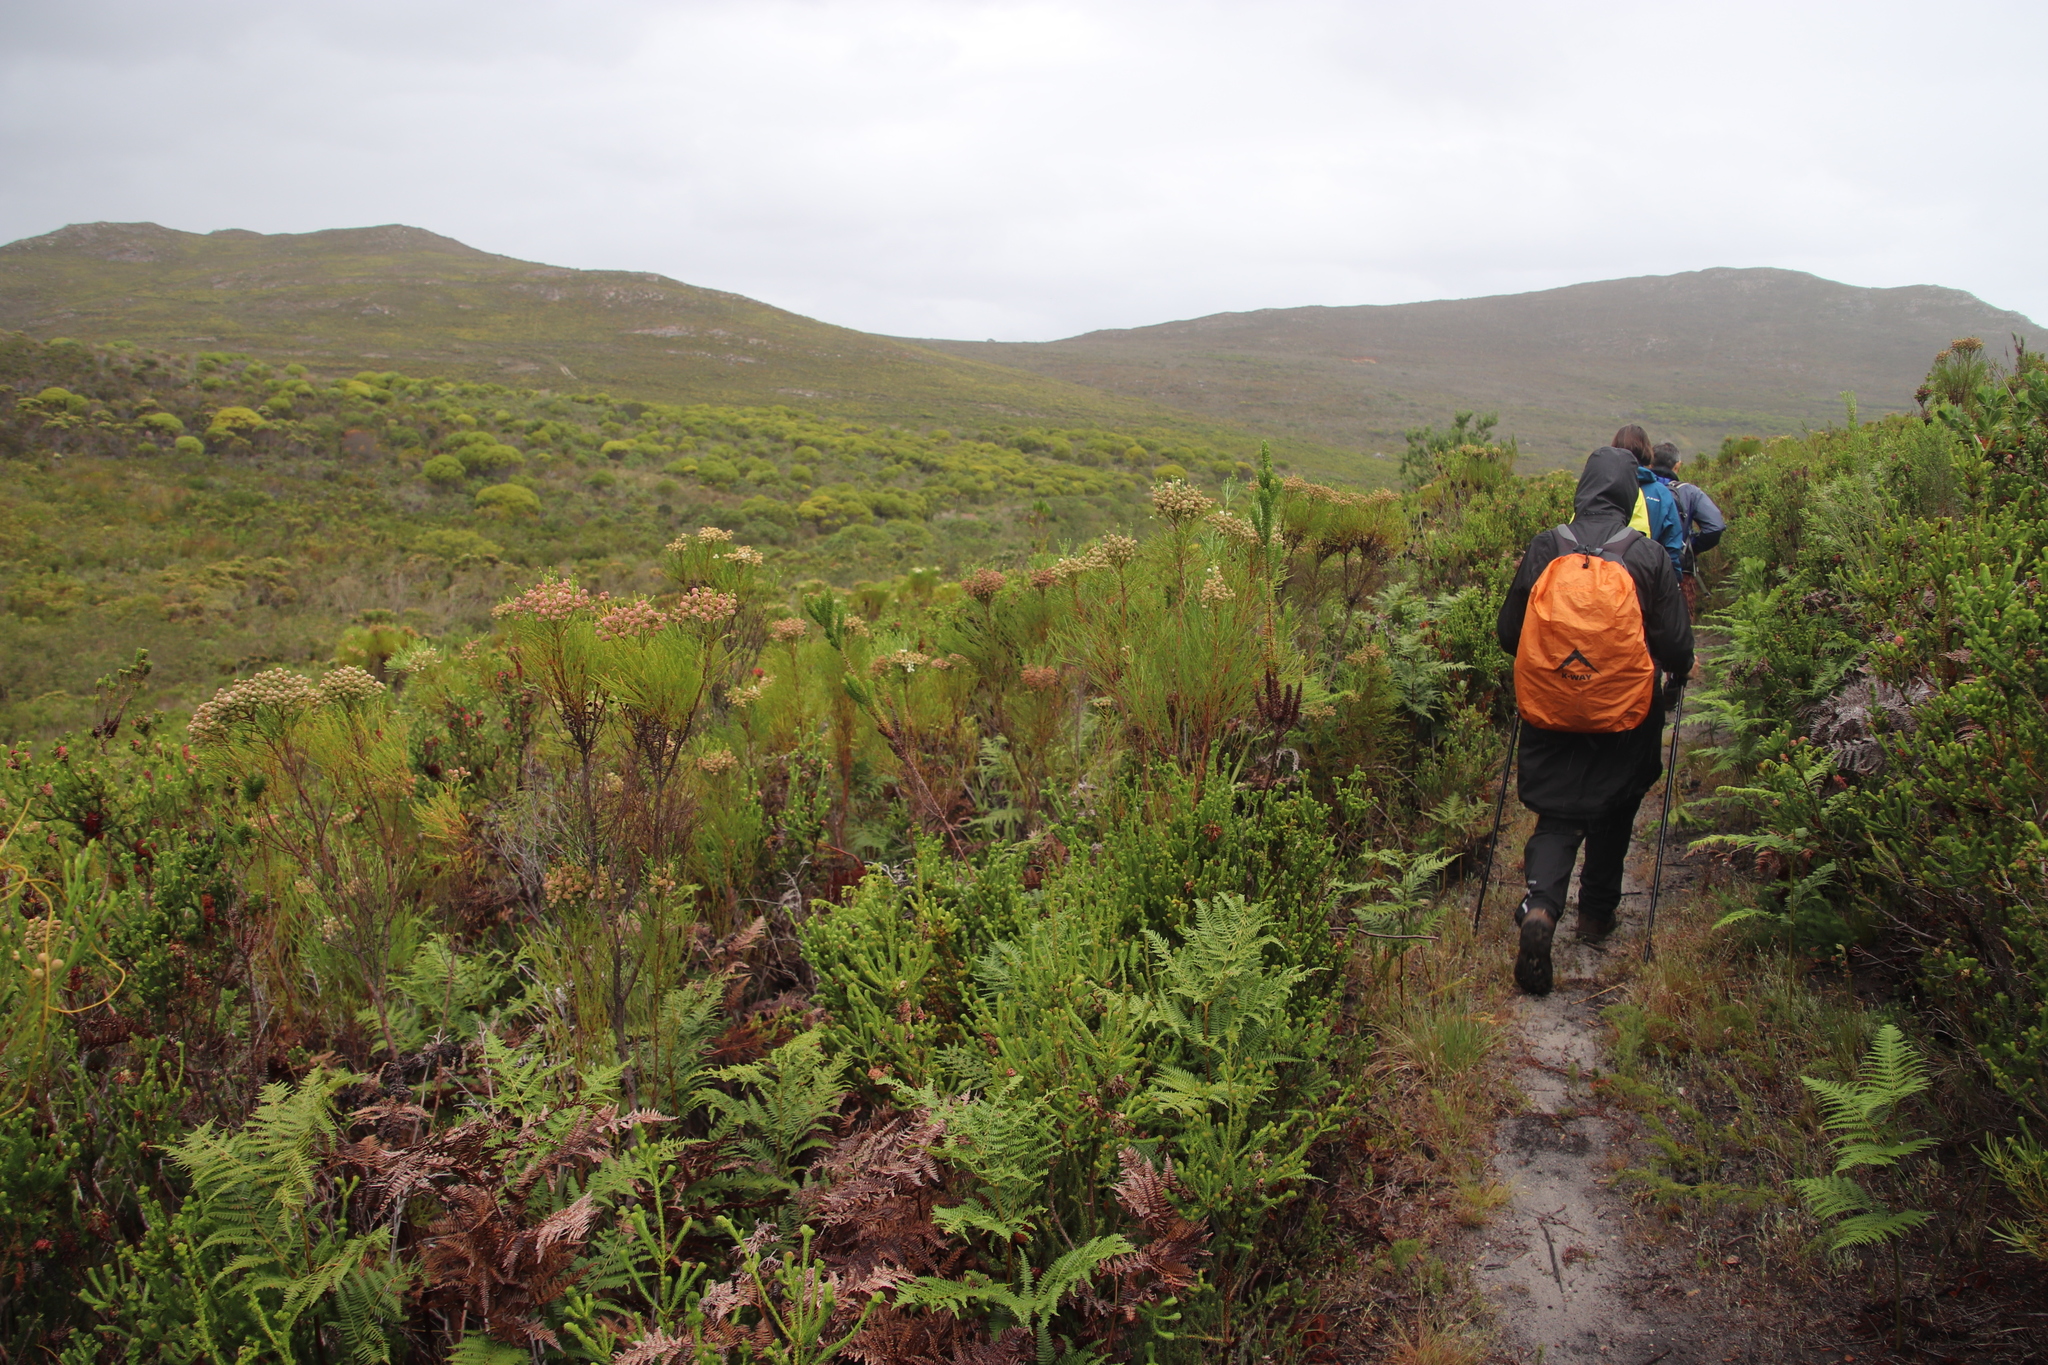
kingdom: Plantae
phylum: Tracheophyta
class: Magnoliopsida
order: Bruniales
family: Bruniaceae
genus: Berzelia
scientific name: Berzelia lanuginosa
